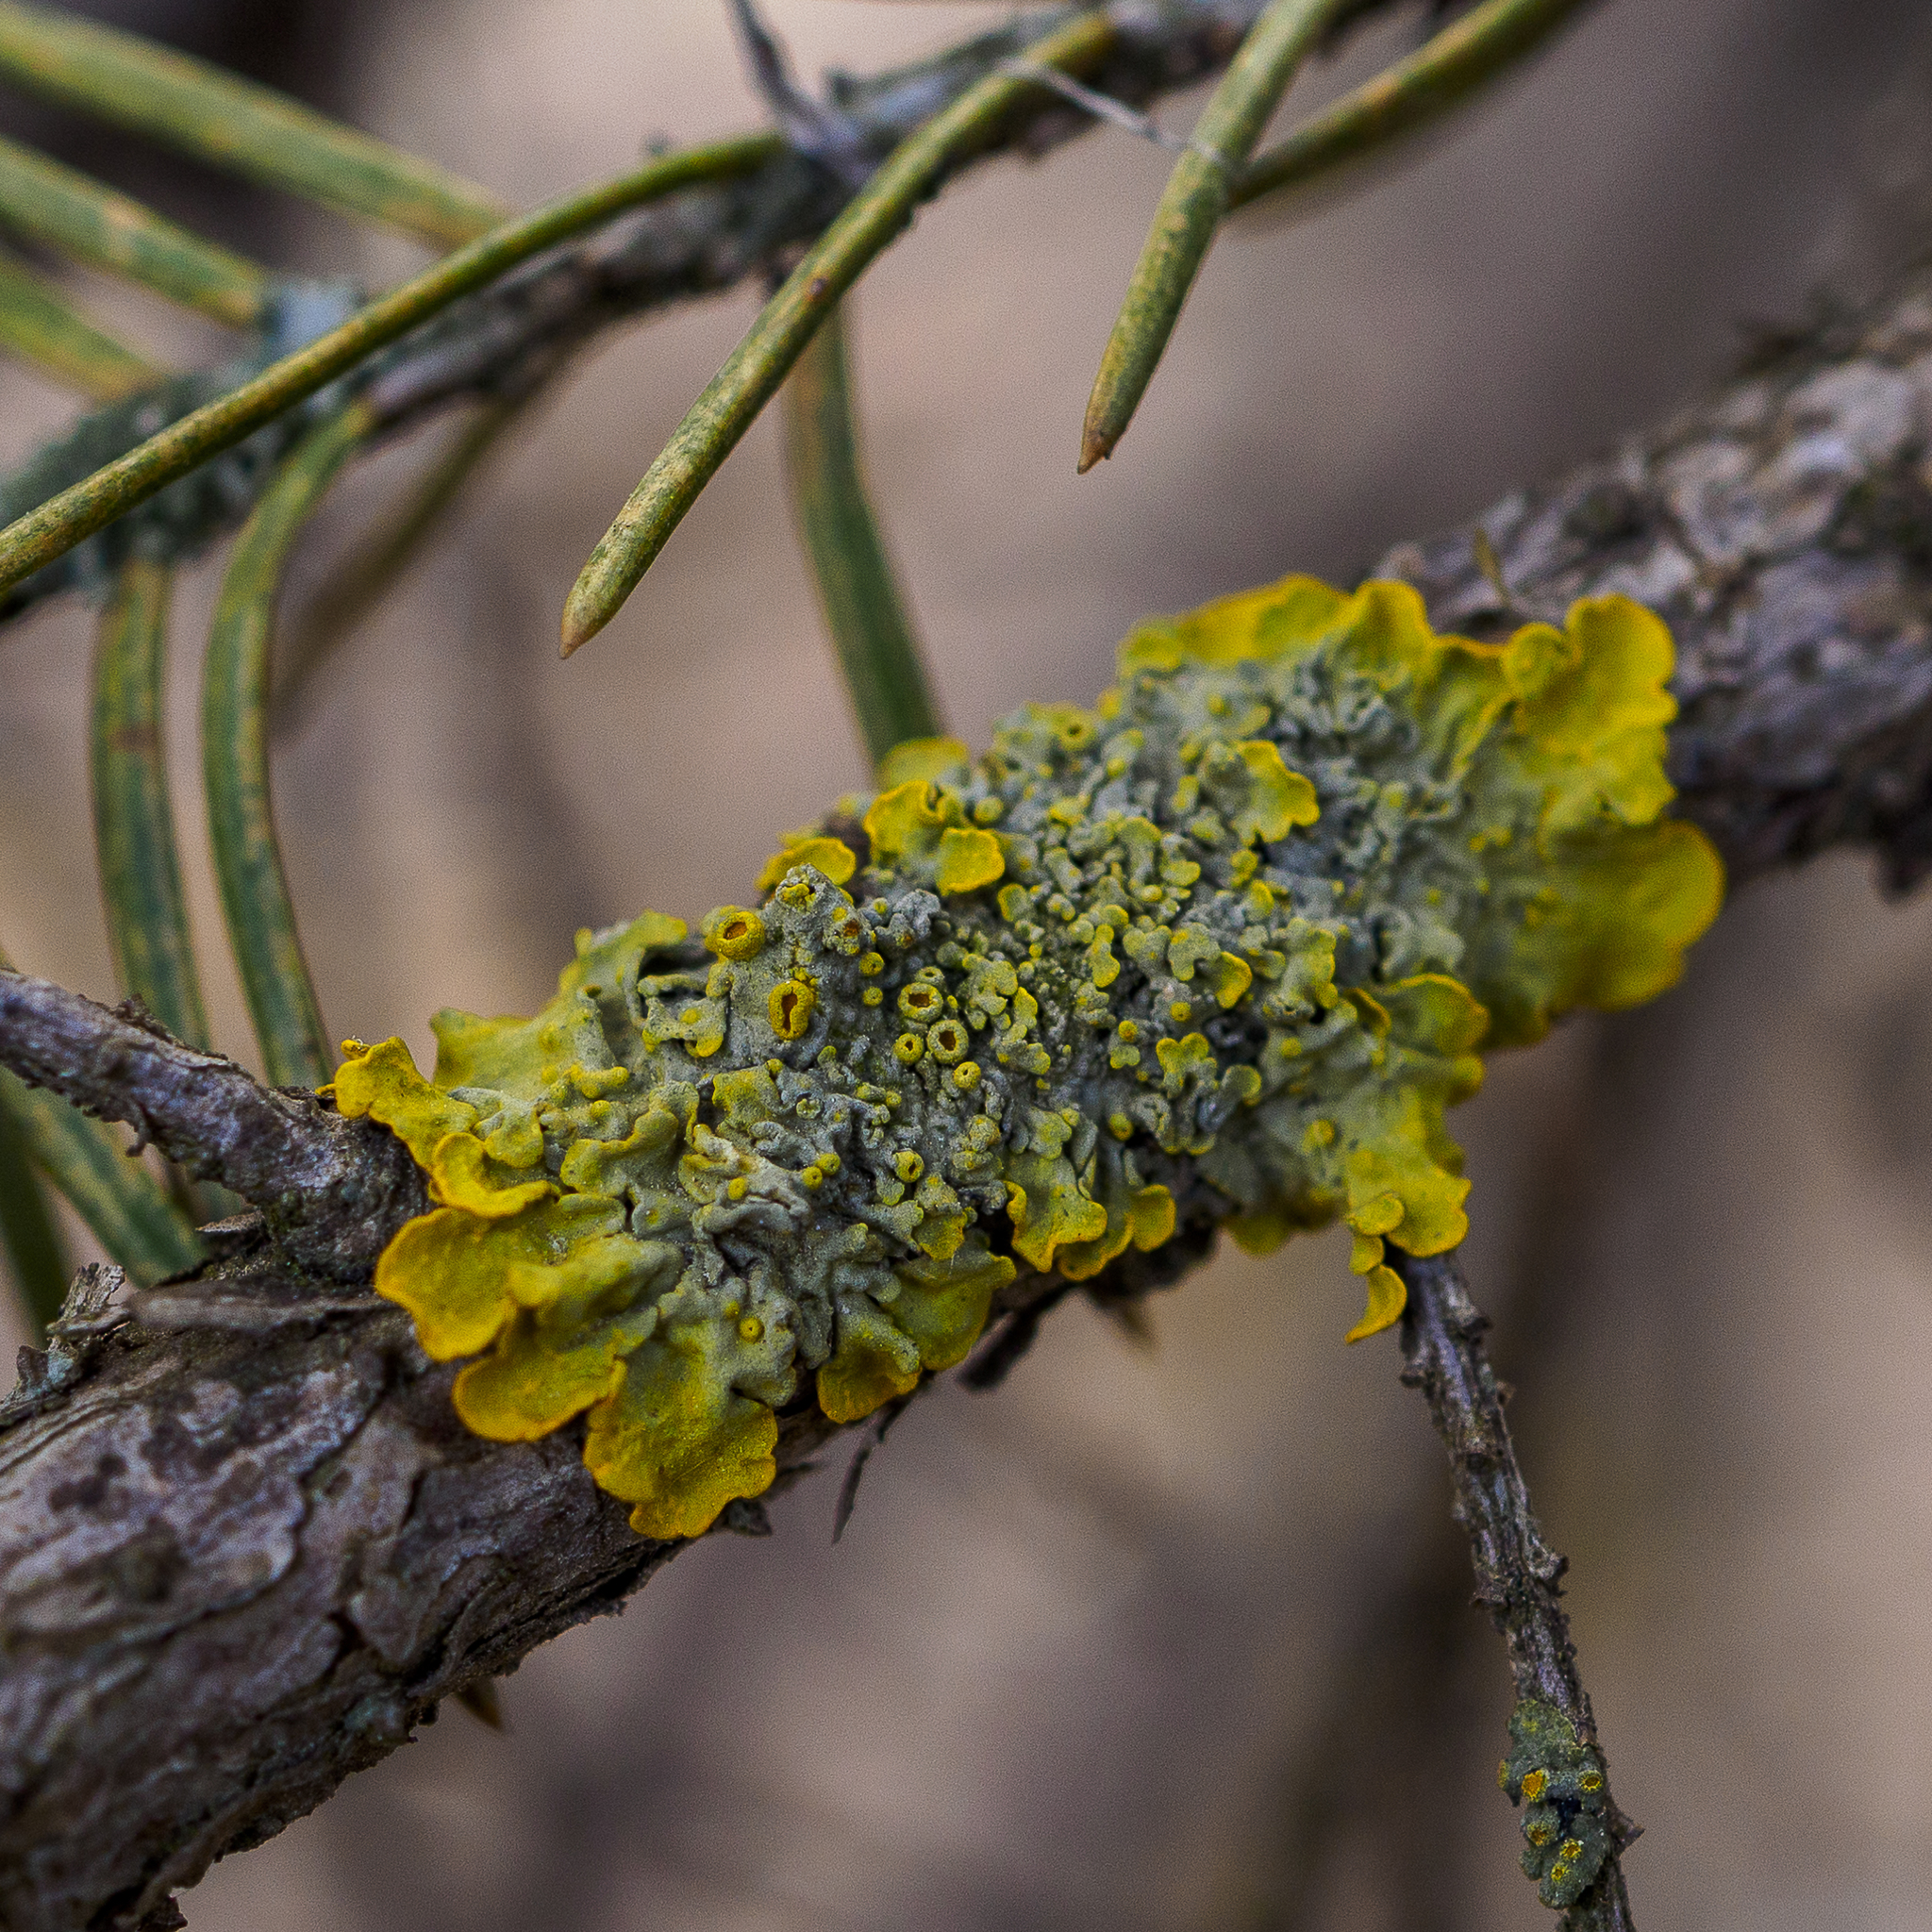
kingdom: Fungi
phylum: Ascomycota
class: Lecanoromycetes
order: Teloschistales
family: Teloschistaceae
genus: Xanthoria
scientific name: Xanthoria parietina
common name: Common orange lichen
